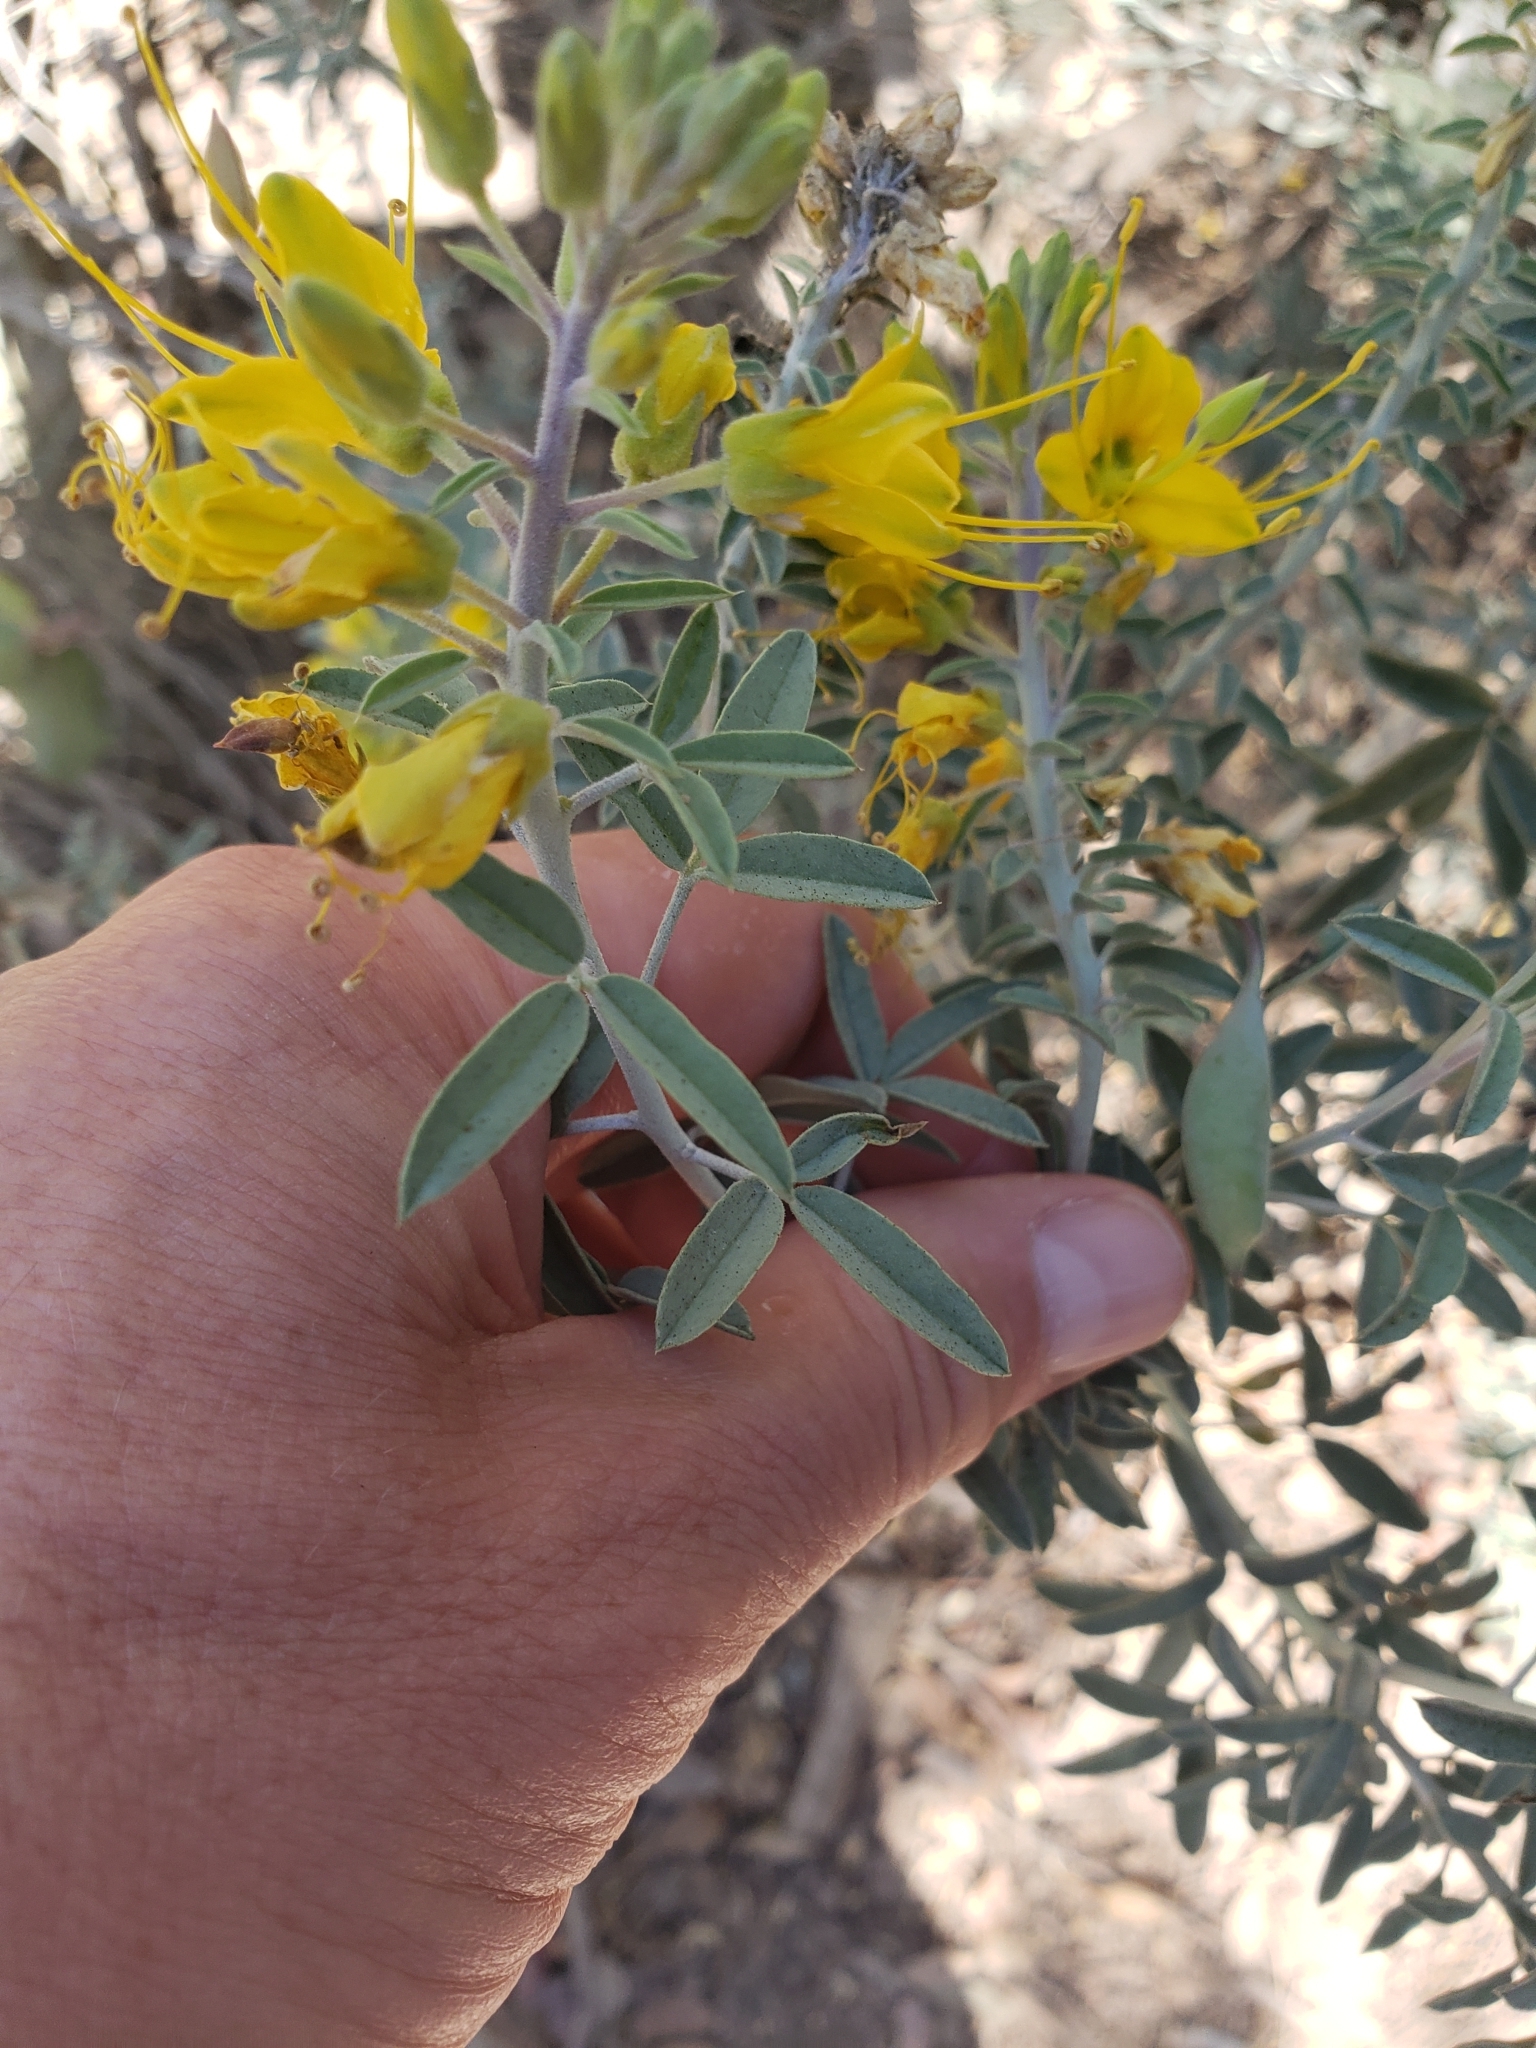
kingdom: Plantae
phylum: Tracheophyta
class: Magnoliopsida
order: Brassicales
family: Cleomaceae
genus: Cleomella
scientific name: Cleomella arborea
